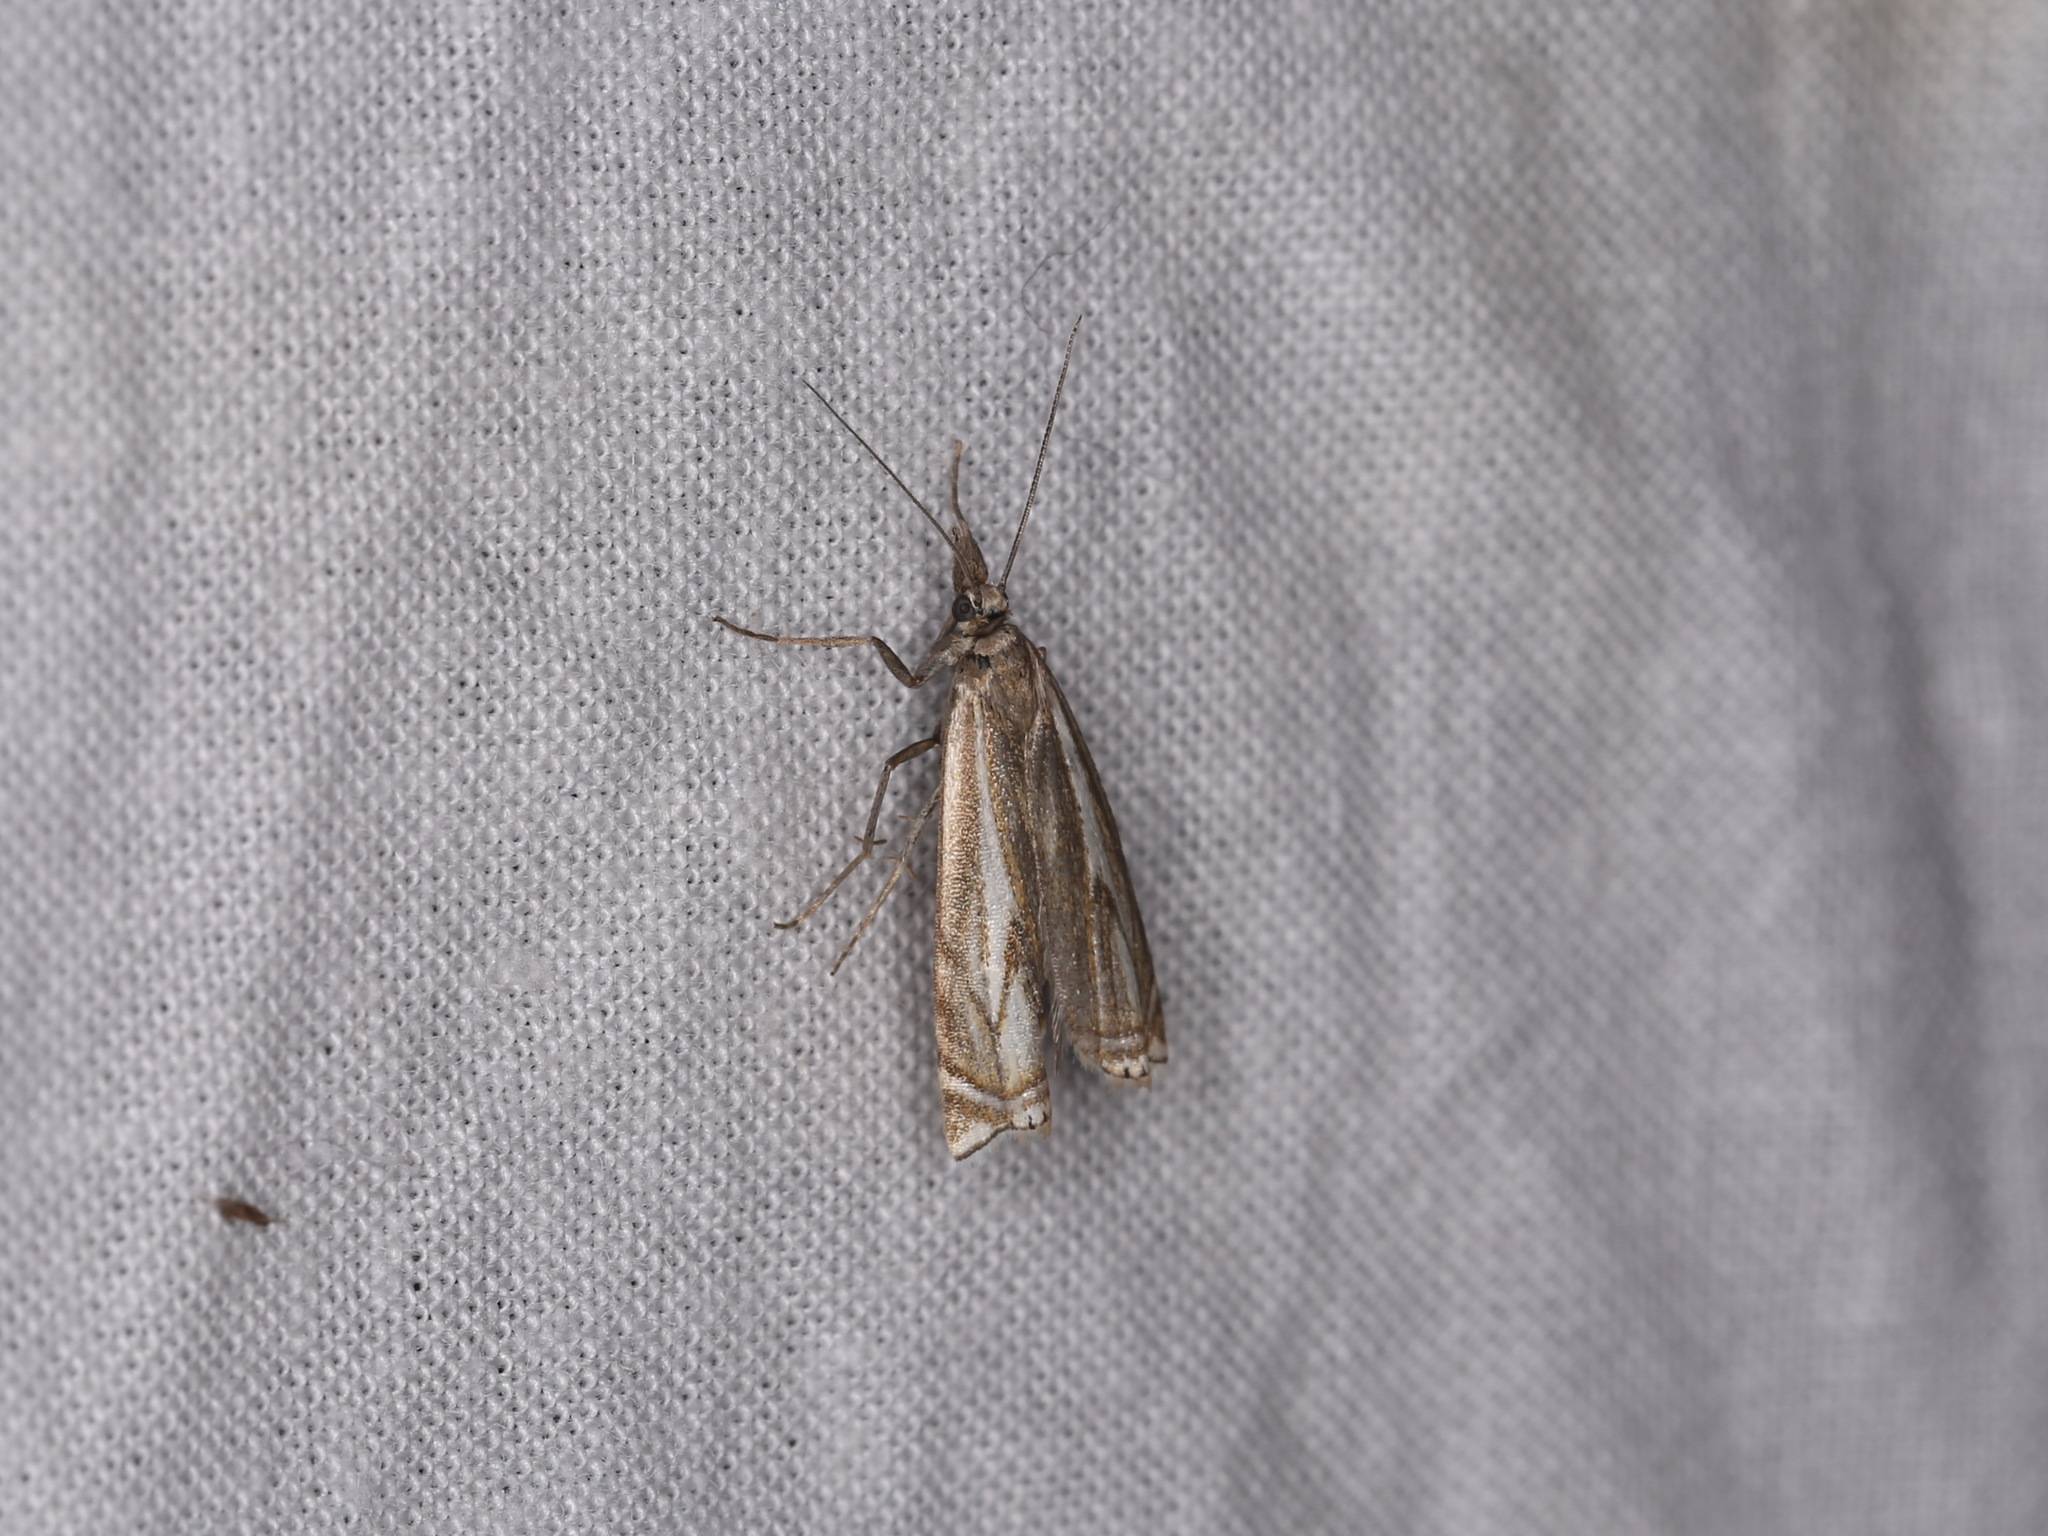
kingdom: Animalia
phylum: Arthropoda
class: Insecta
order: Lepidoptera
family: Crambidae
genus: Crambus
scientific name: Crambus nemorella
